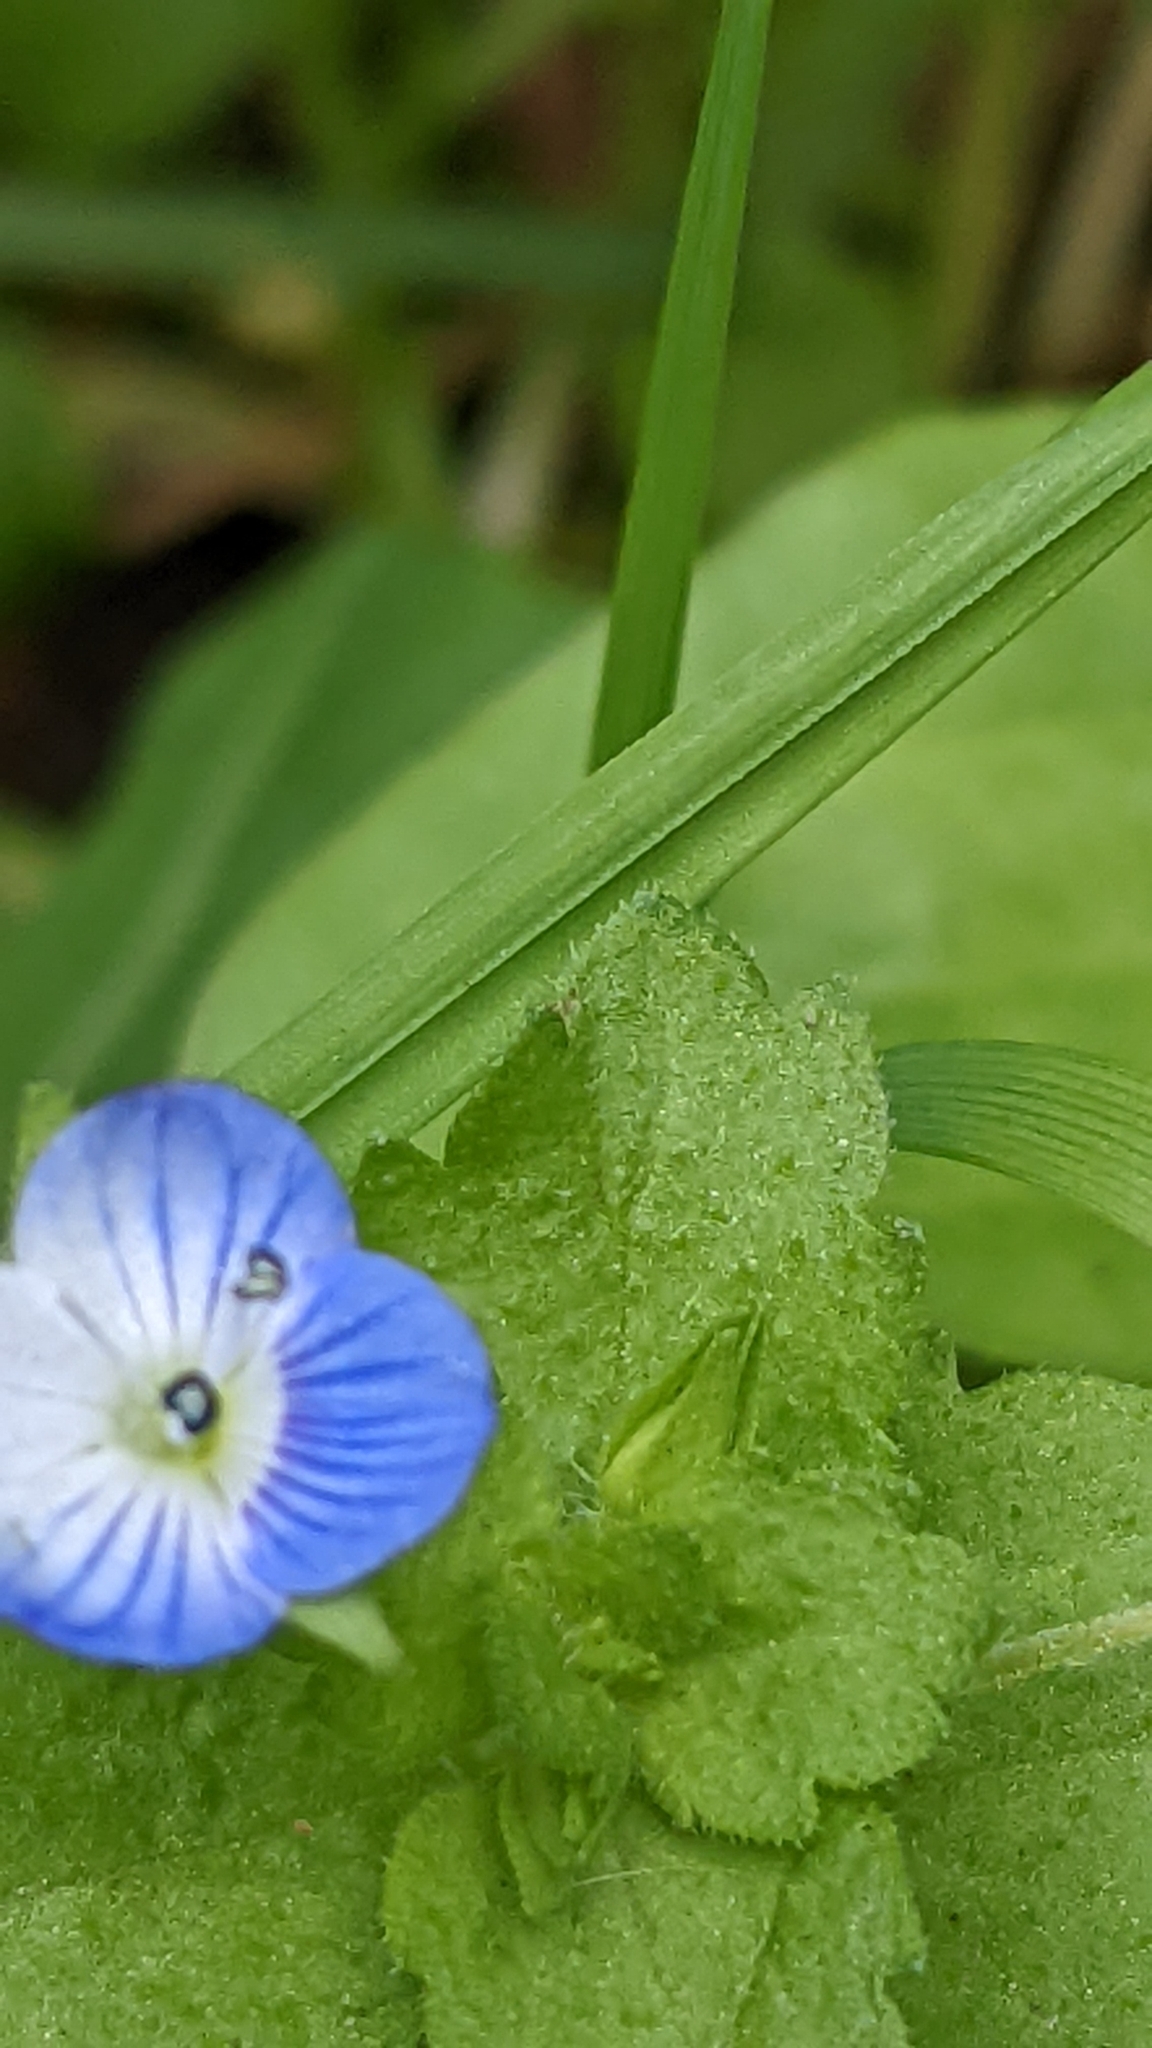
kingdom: Plantae
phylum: Tracheophyta
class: Magnoliopsida
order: Lamiales
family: Plantaginaceae
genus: Veronica
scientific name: Veronica persica
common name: Common field-speedwell
